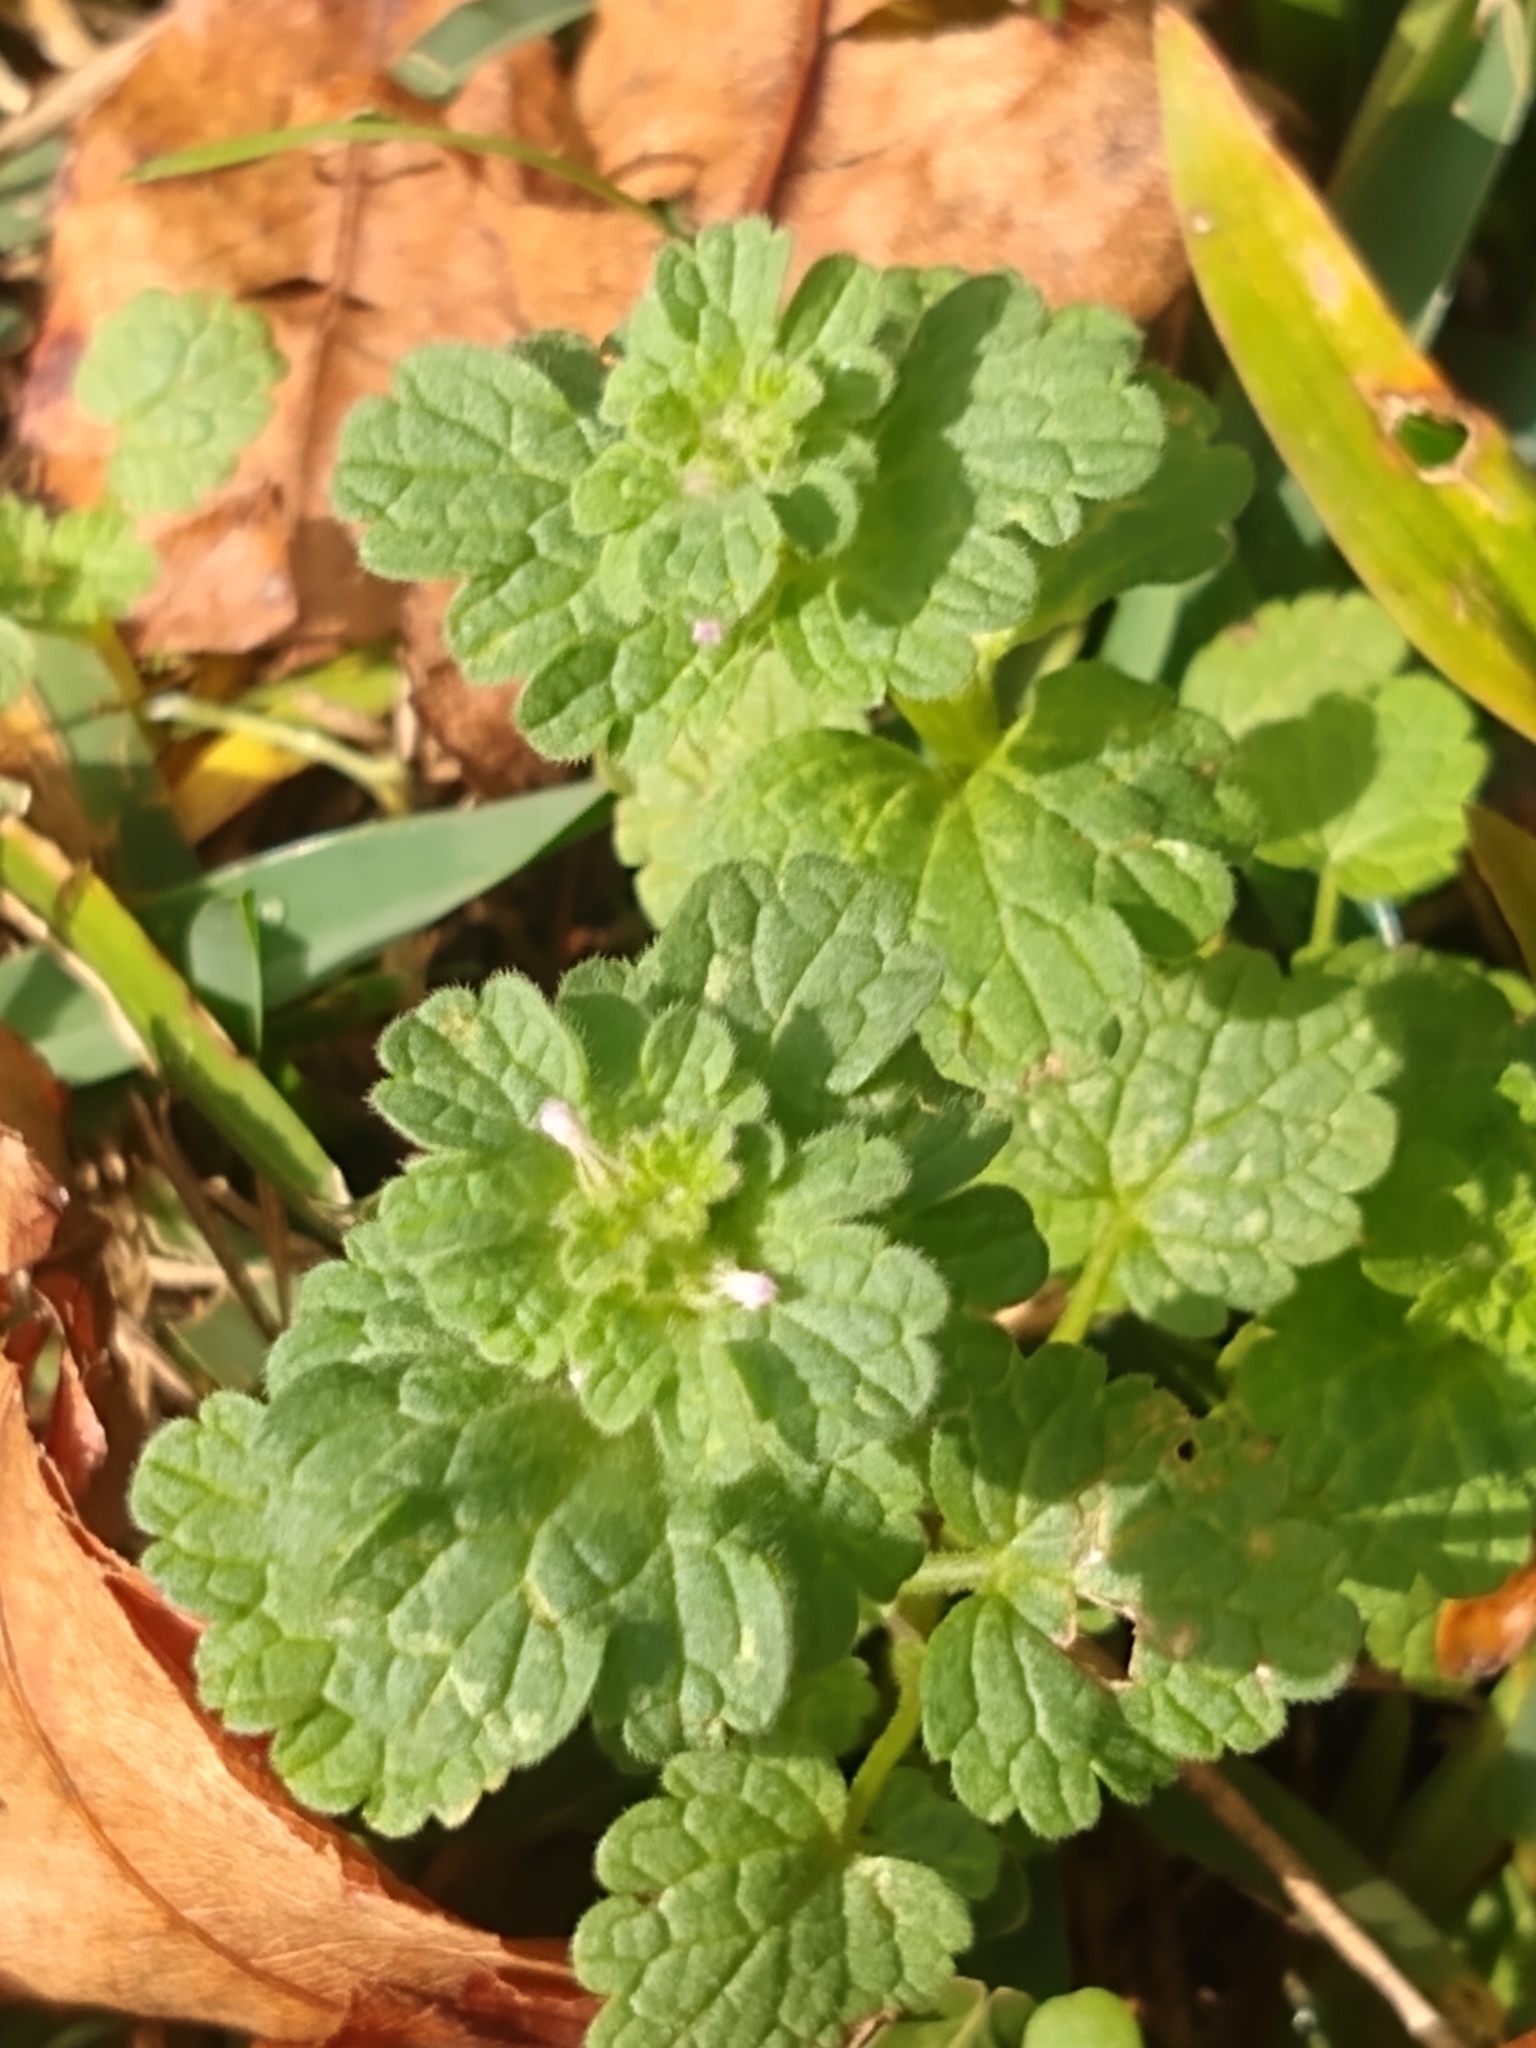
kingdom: Plantae
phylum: Tracheophyta
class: Magnoliopsida
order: Lamiales
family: Lamiaceae
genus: Lamium
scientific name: Lamium amplexicaule
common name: Henbit dead-nettle
